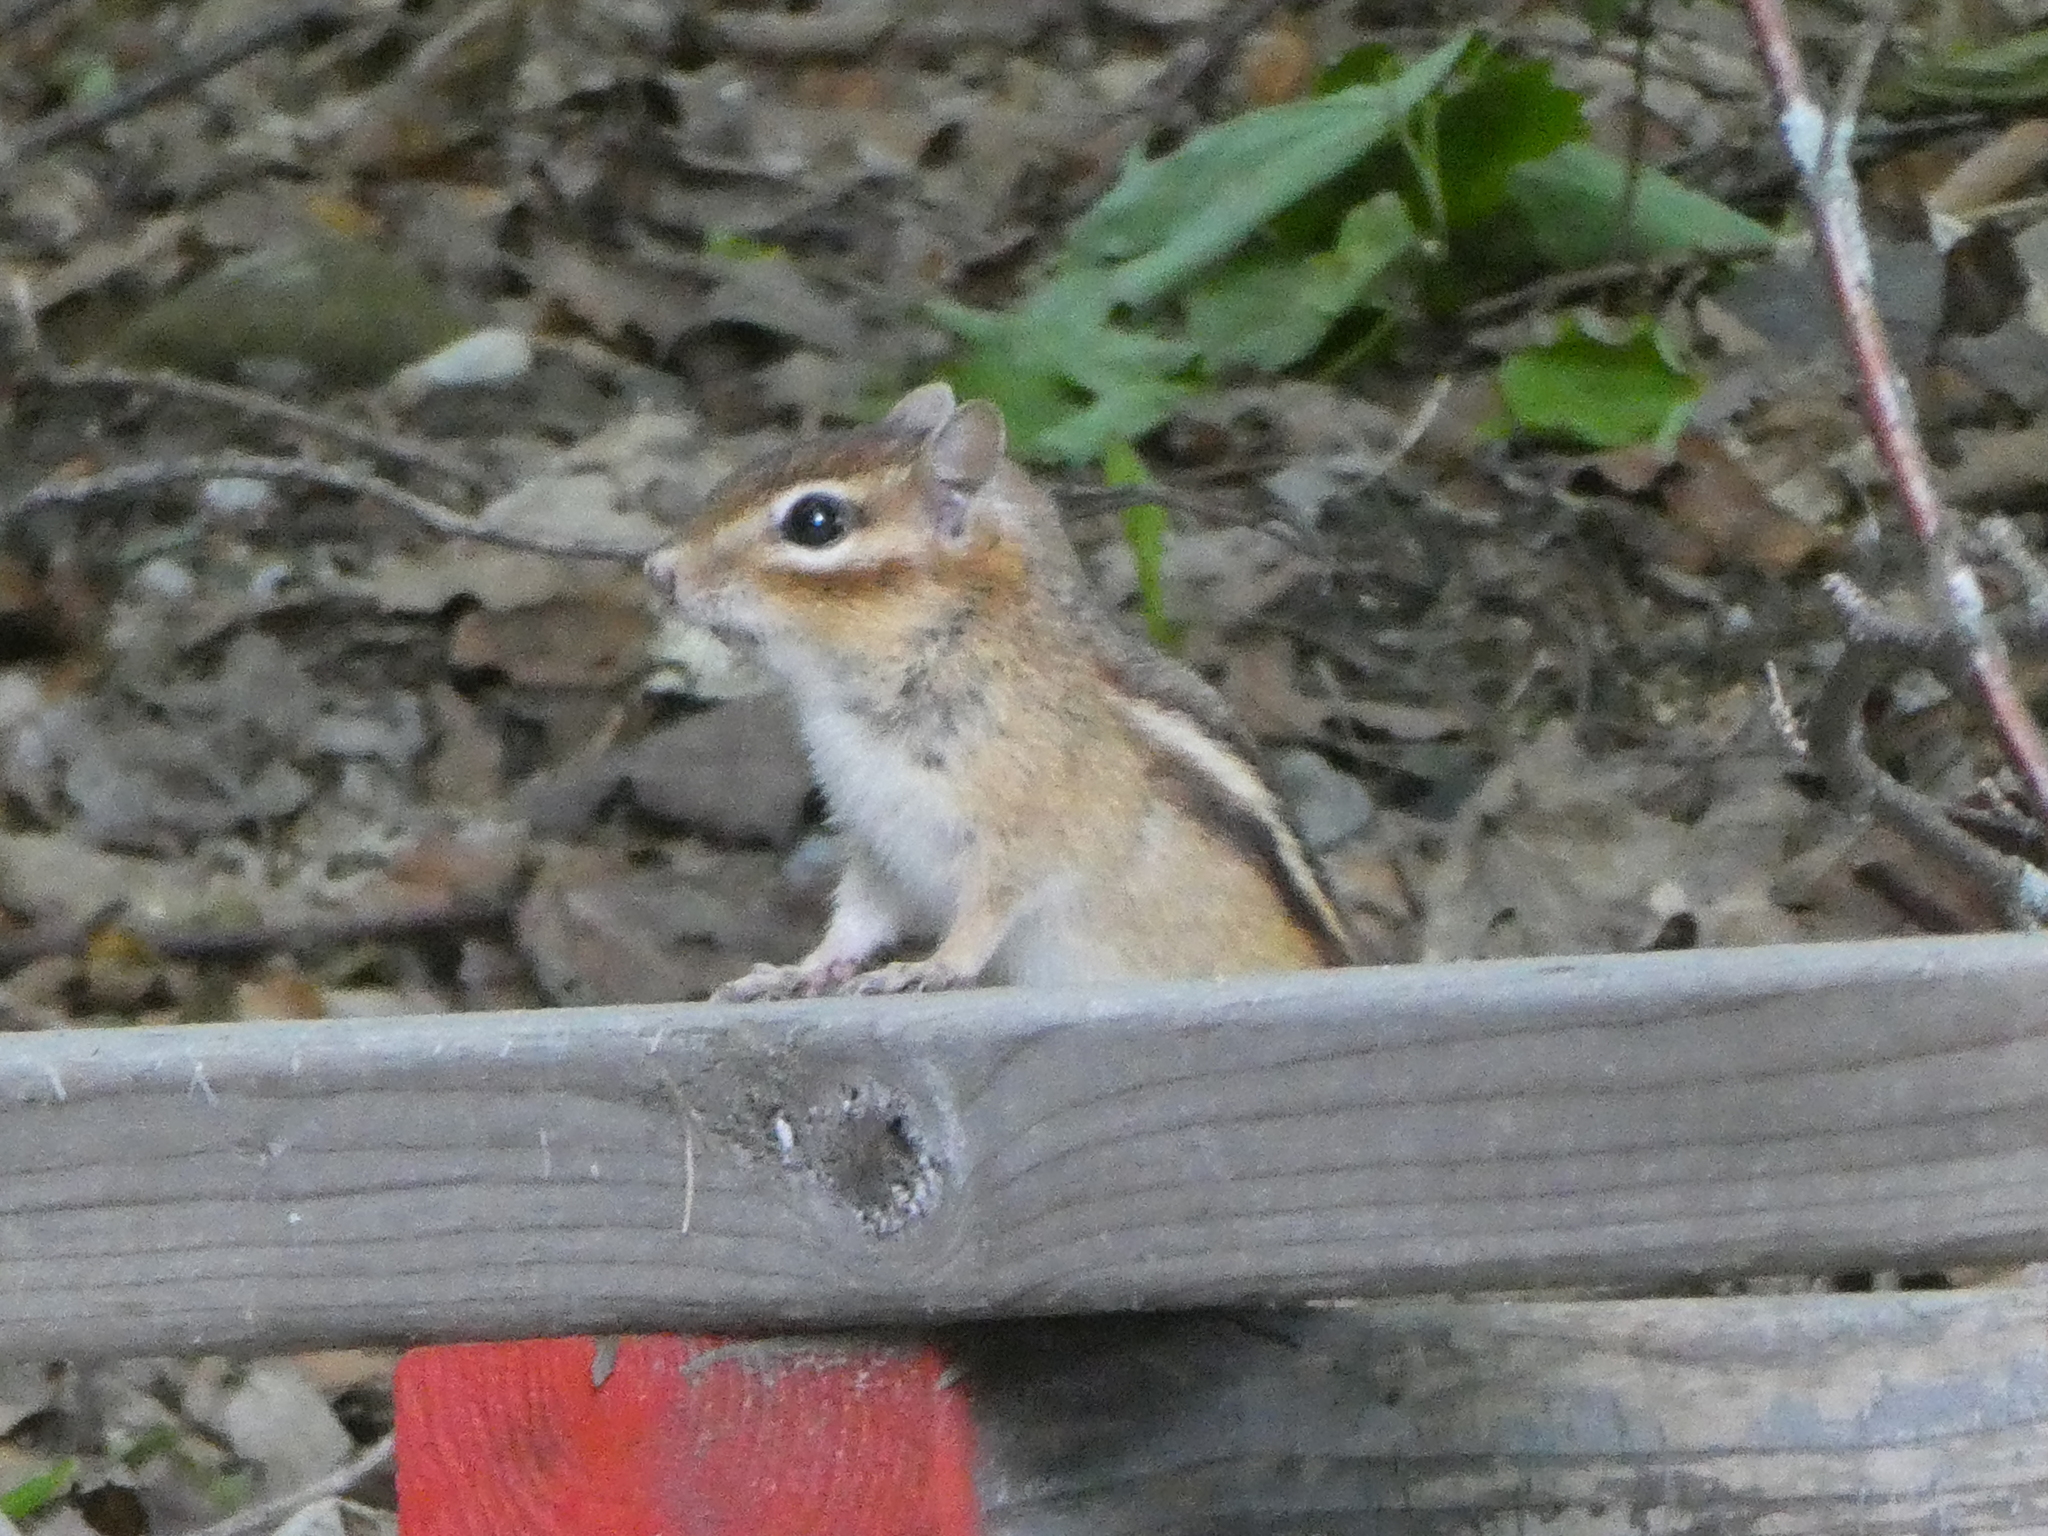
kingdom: Animalia
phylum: Chordata
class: Mammalia
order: Rodentia
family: Sciuridae
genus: Tamias
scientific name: Tamias striatus
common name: Eastern chipmunk
